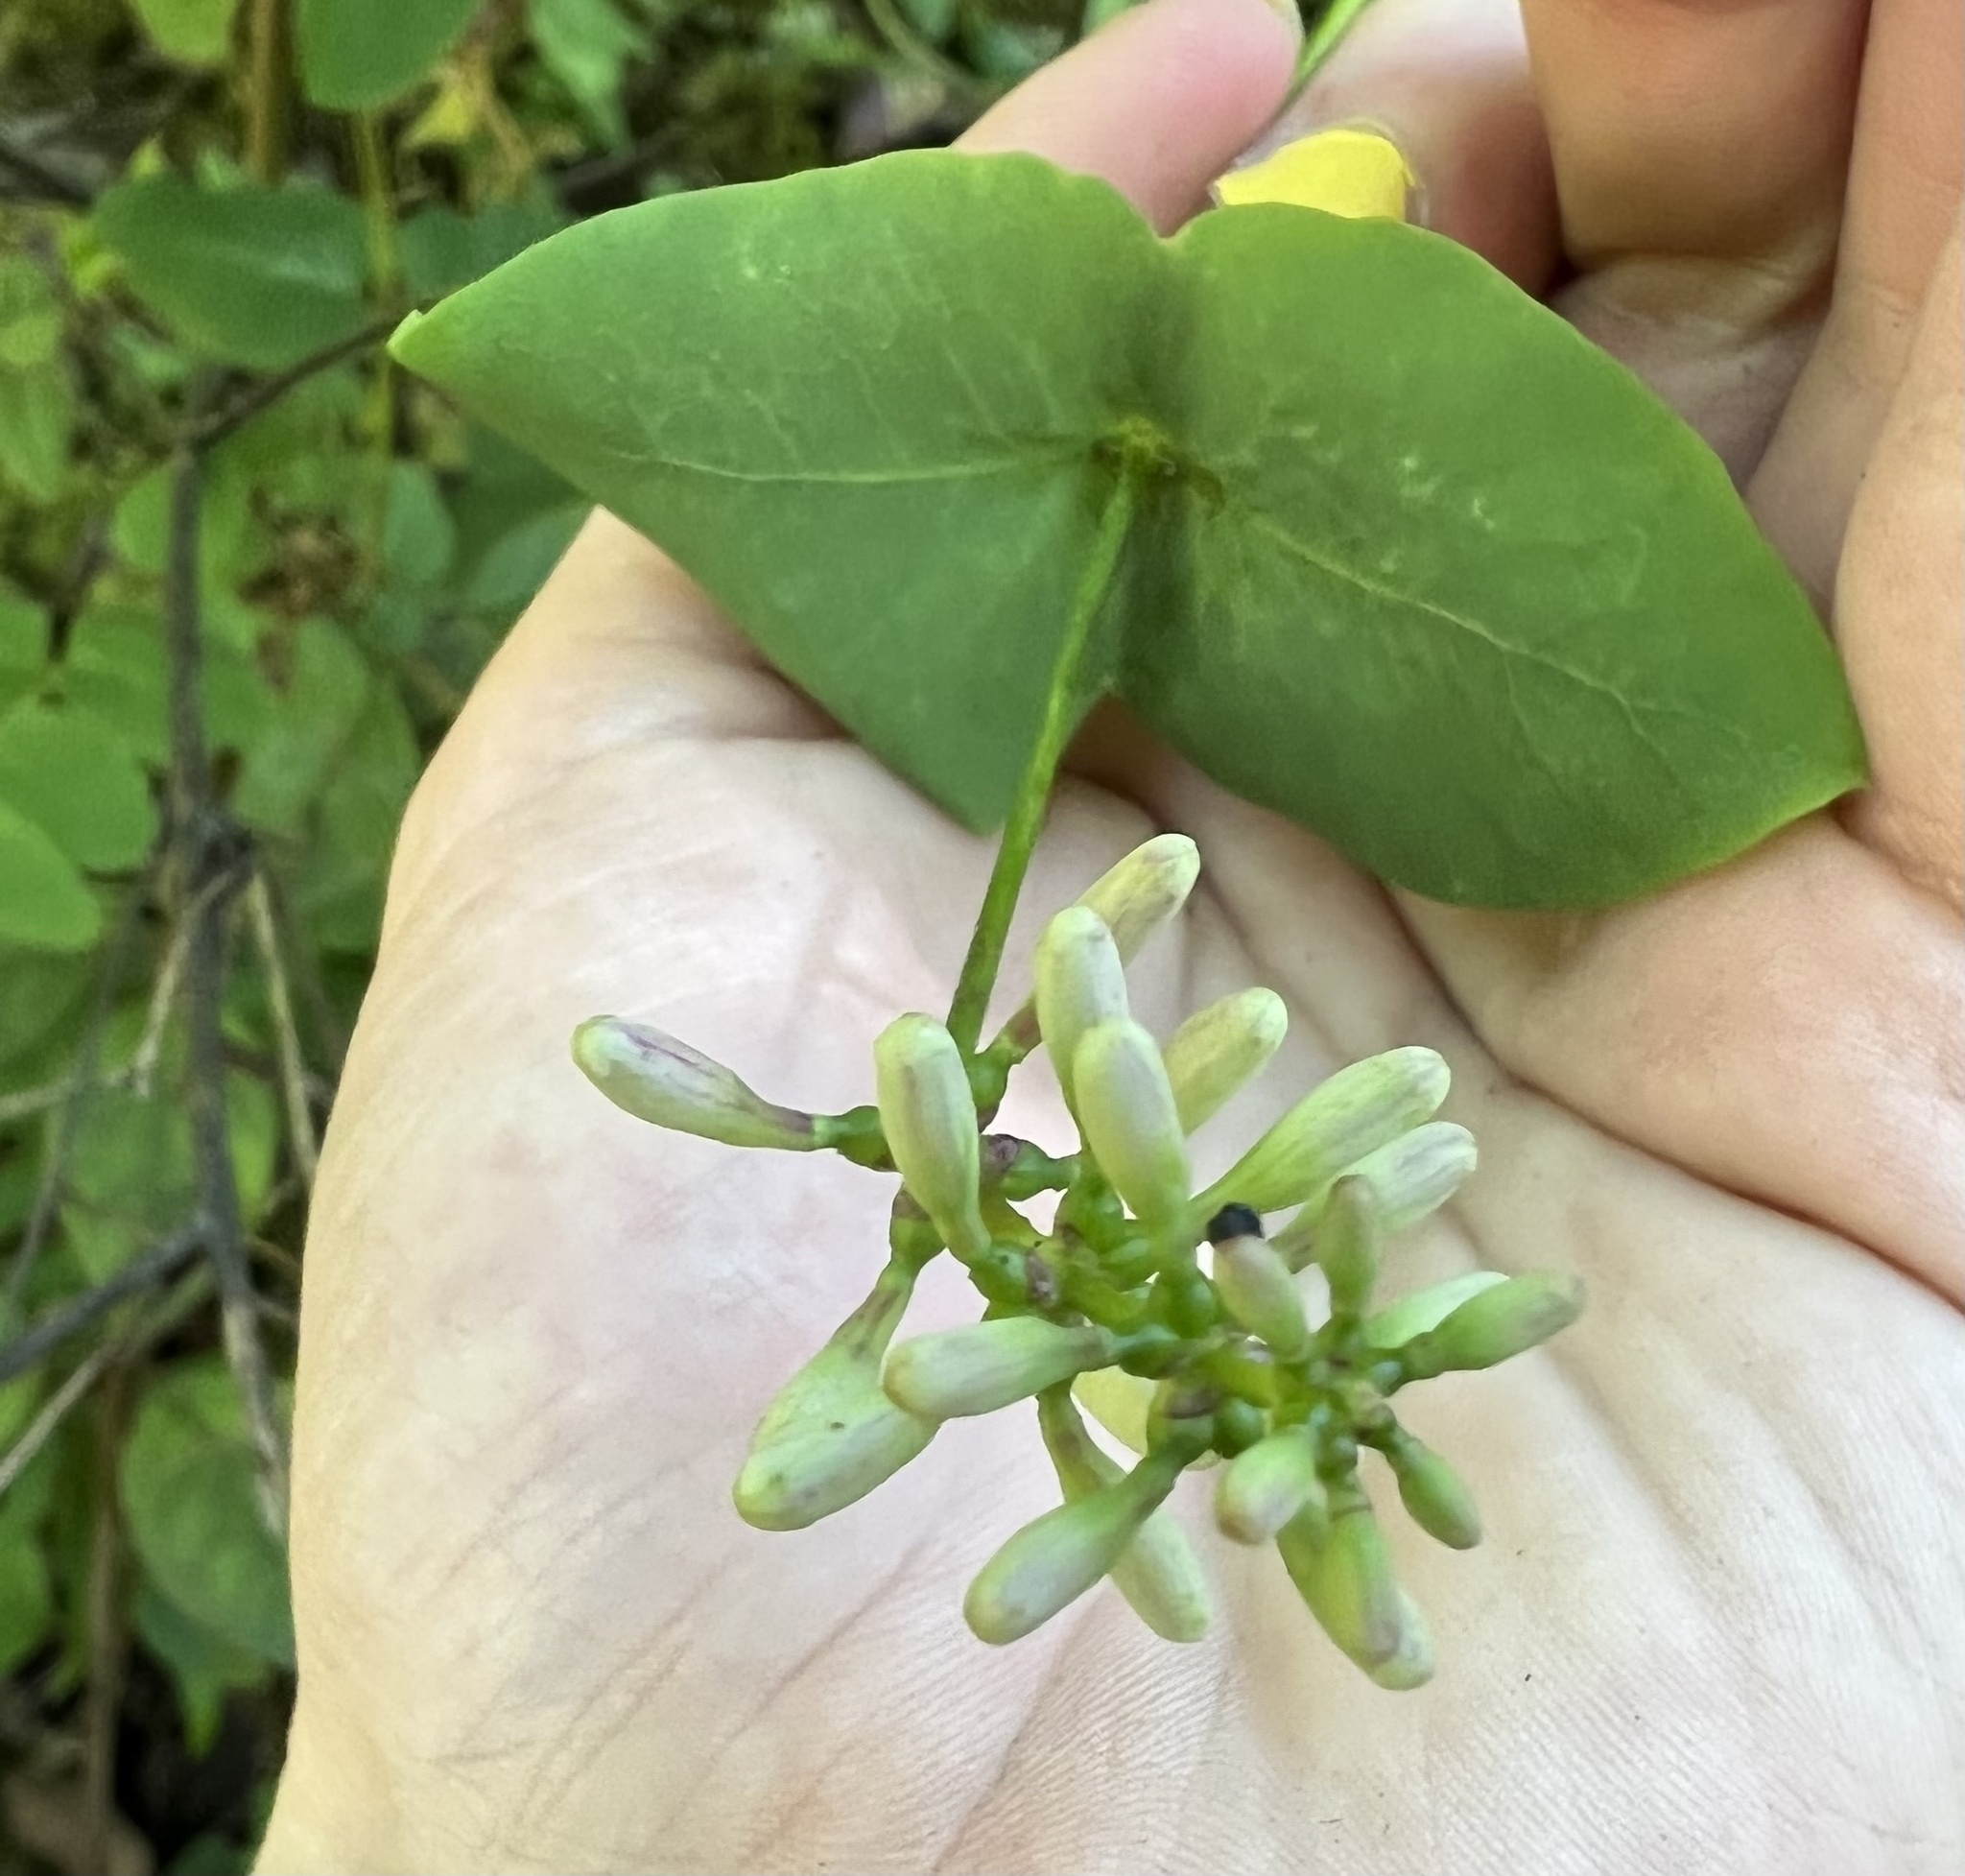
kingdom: Plantae
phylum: Tracheophyta
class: Magnoliopsida
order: Dipsacales
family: Caprifoliaceae
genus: Lonicera
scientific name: Lonicera hispidula
